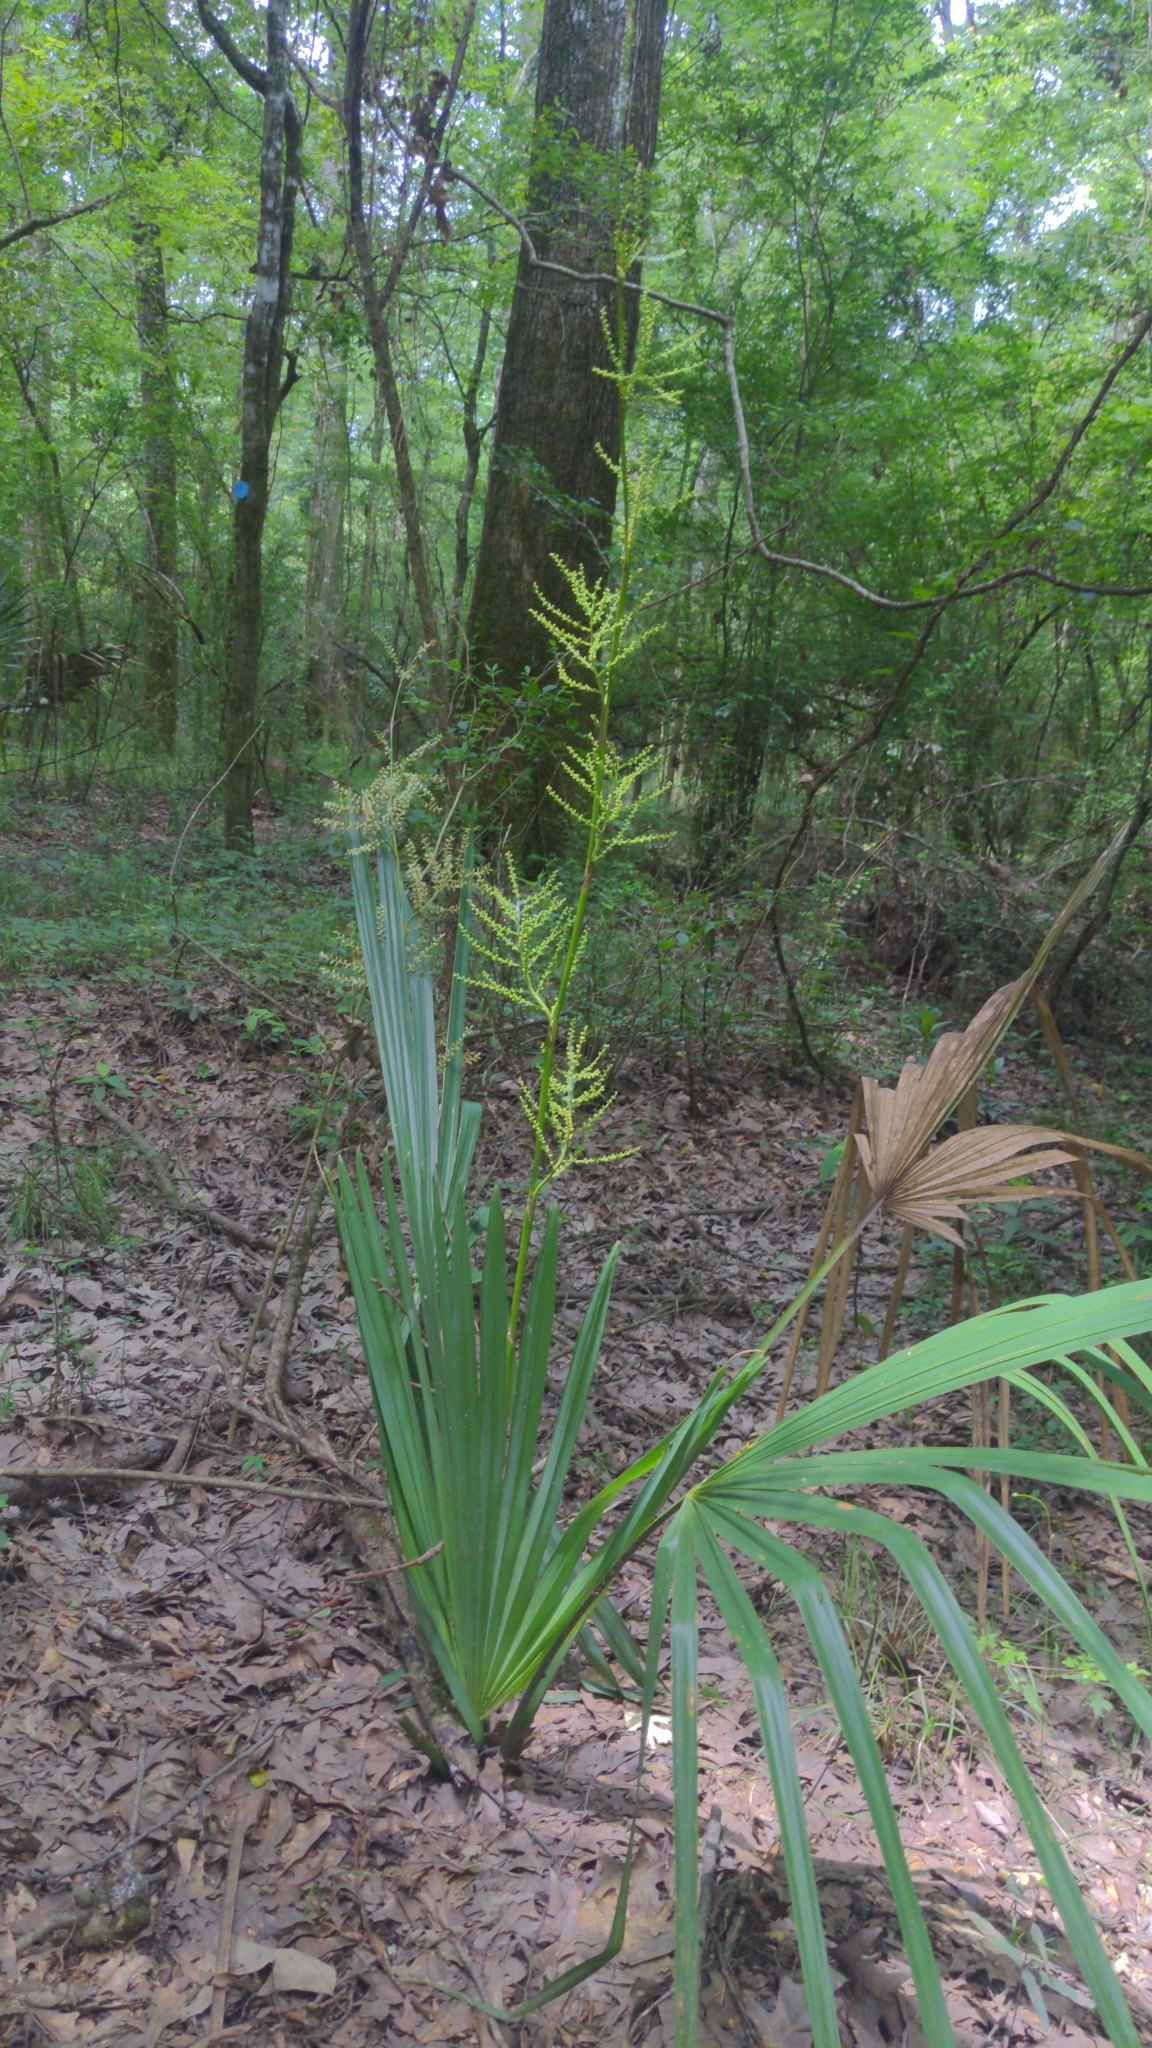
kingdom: Plantae
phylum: Tracheophyta
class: Liliopsida
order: Arecales
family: Arecaceae
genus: Sabal
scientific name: Sabal minor
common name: Dwarf palmetto
